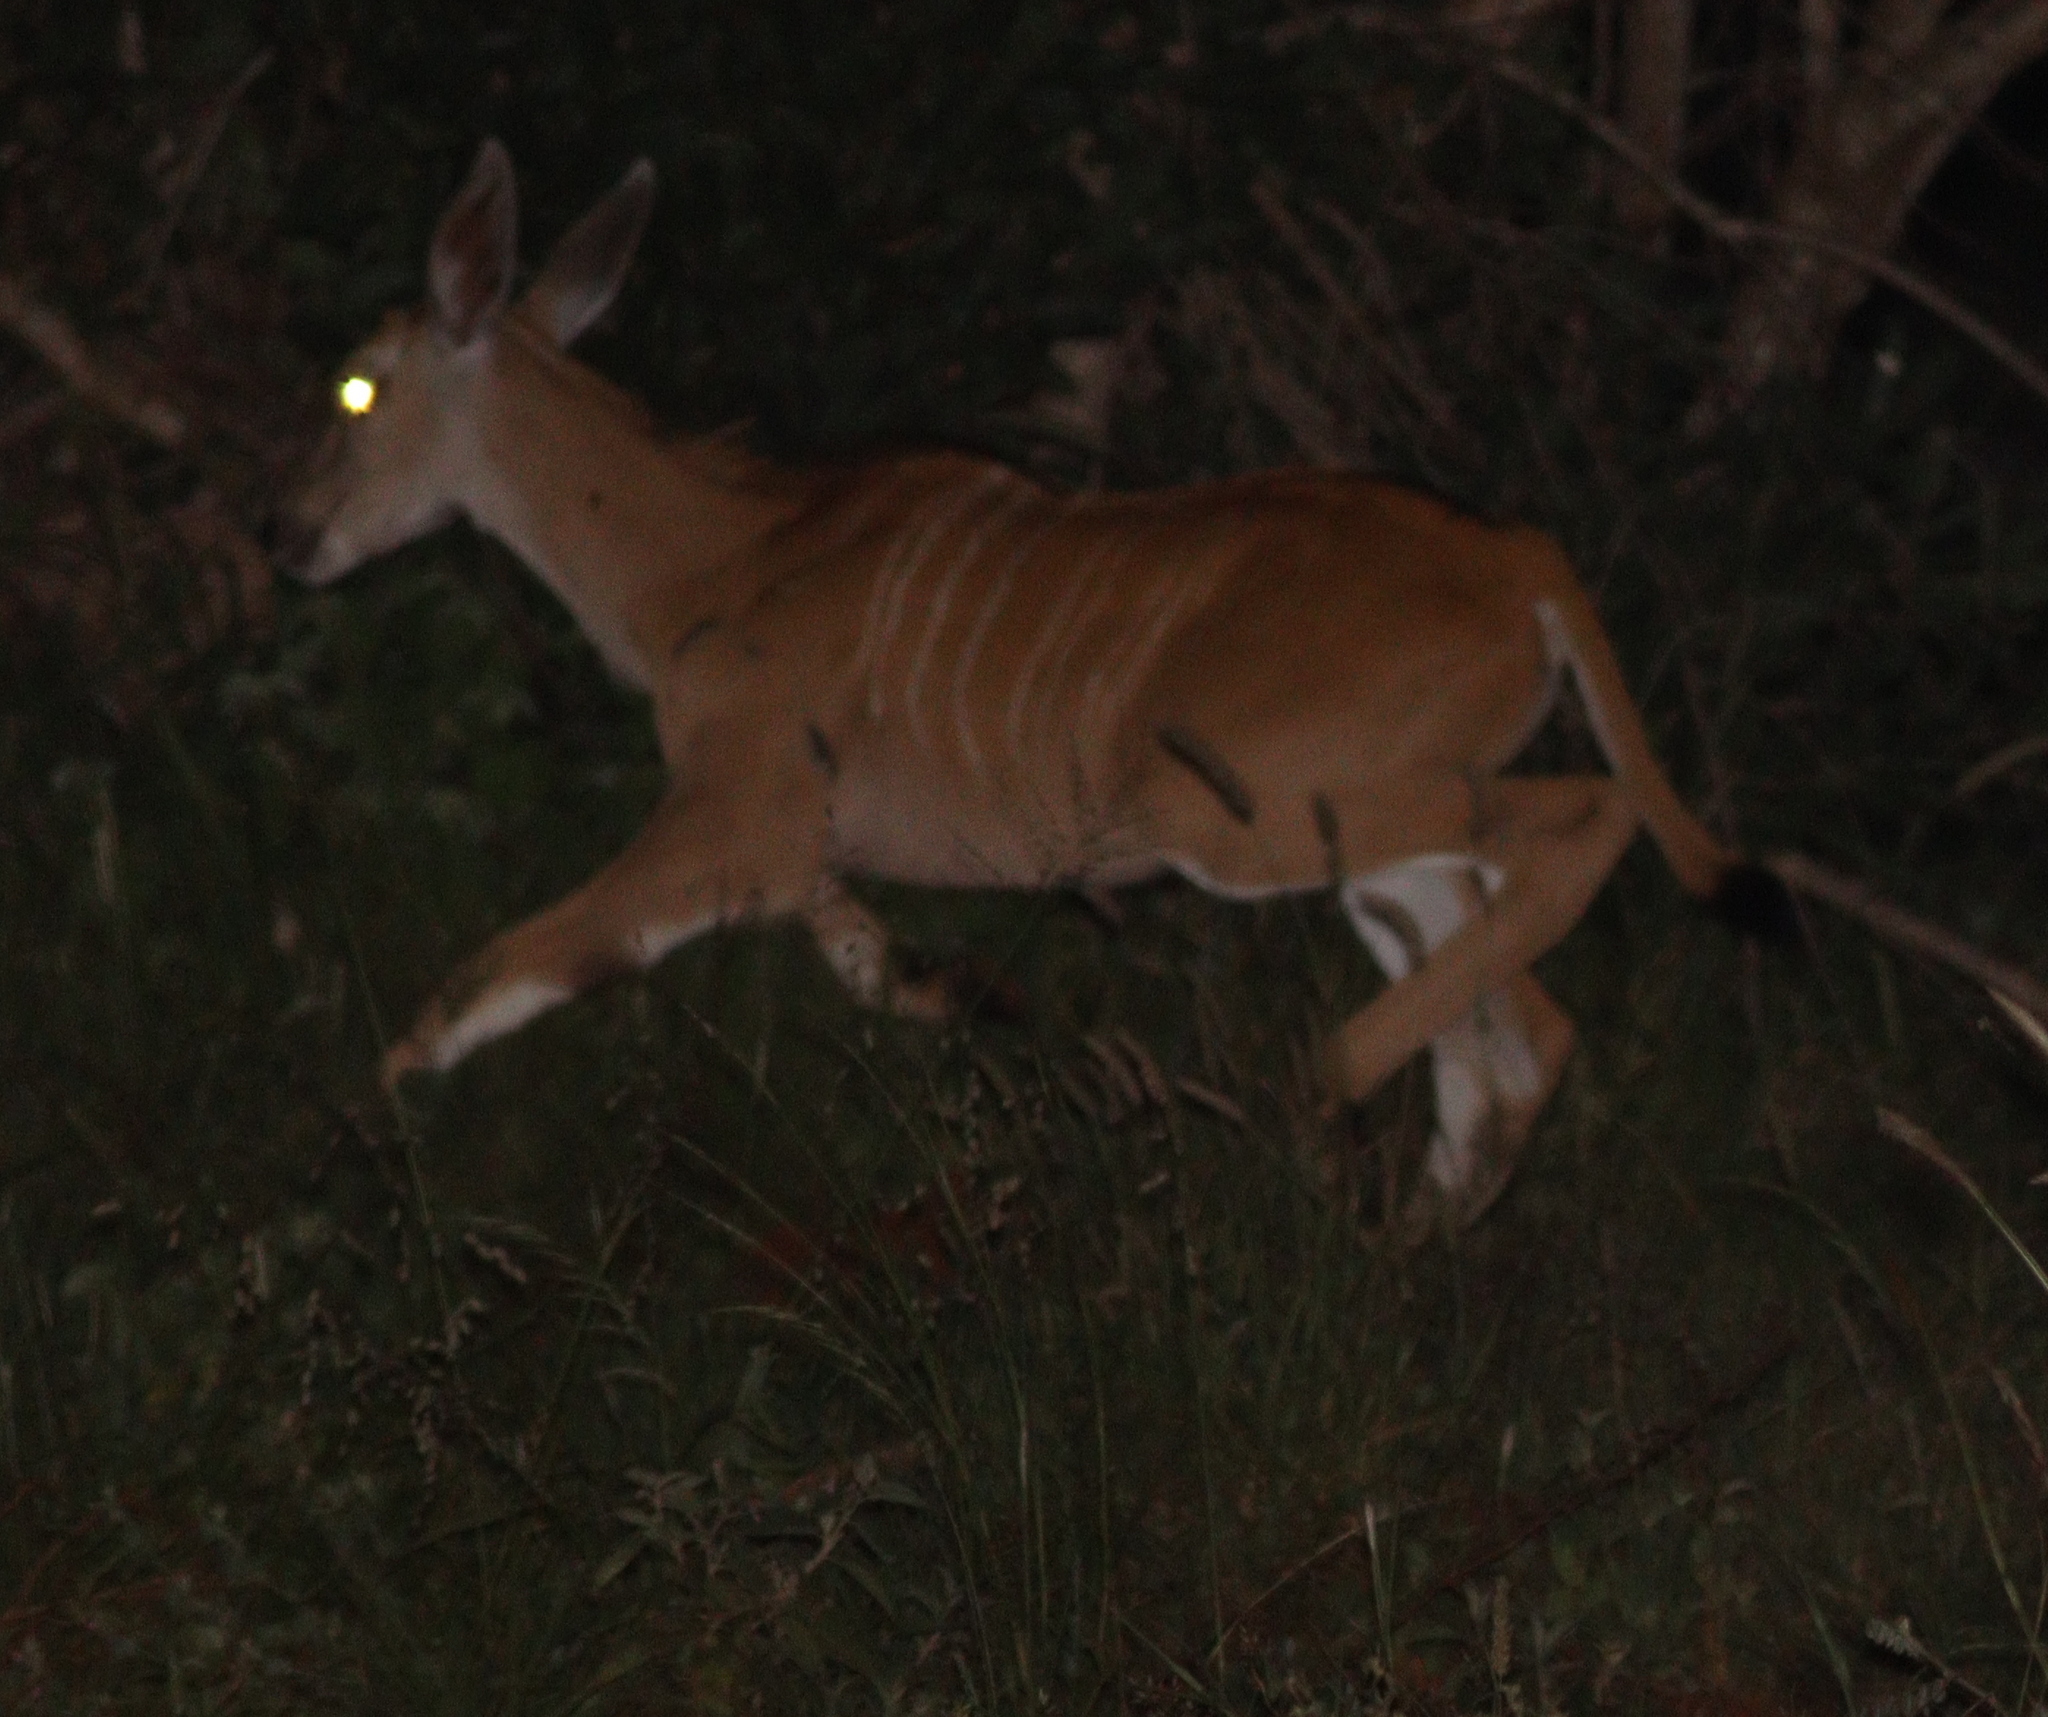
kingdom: Animalia
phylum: Chordata
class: Mammalia
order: Artiodactyla
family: Bovidae
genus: Taurotragus
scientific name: Taurotragus oryx
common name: Common eland
